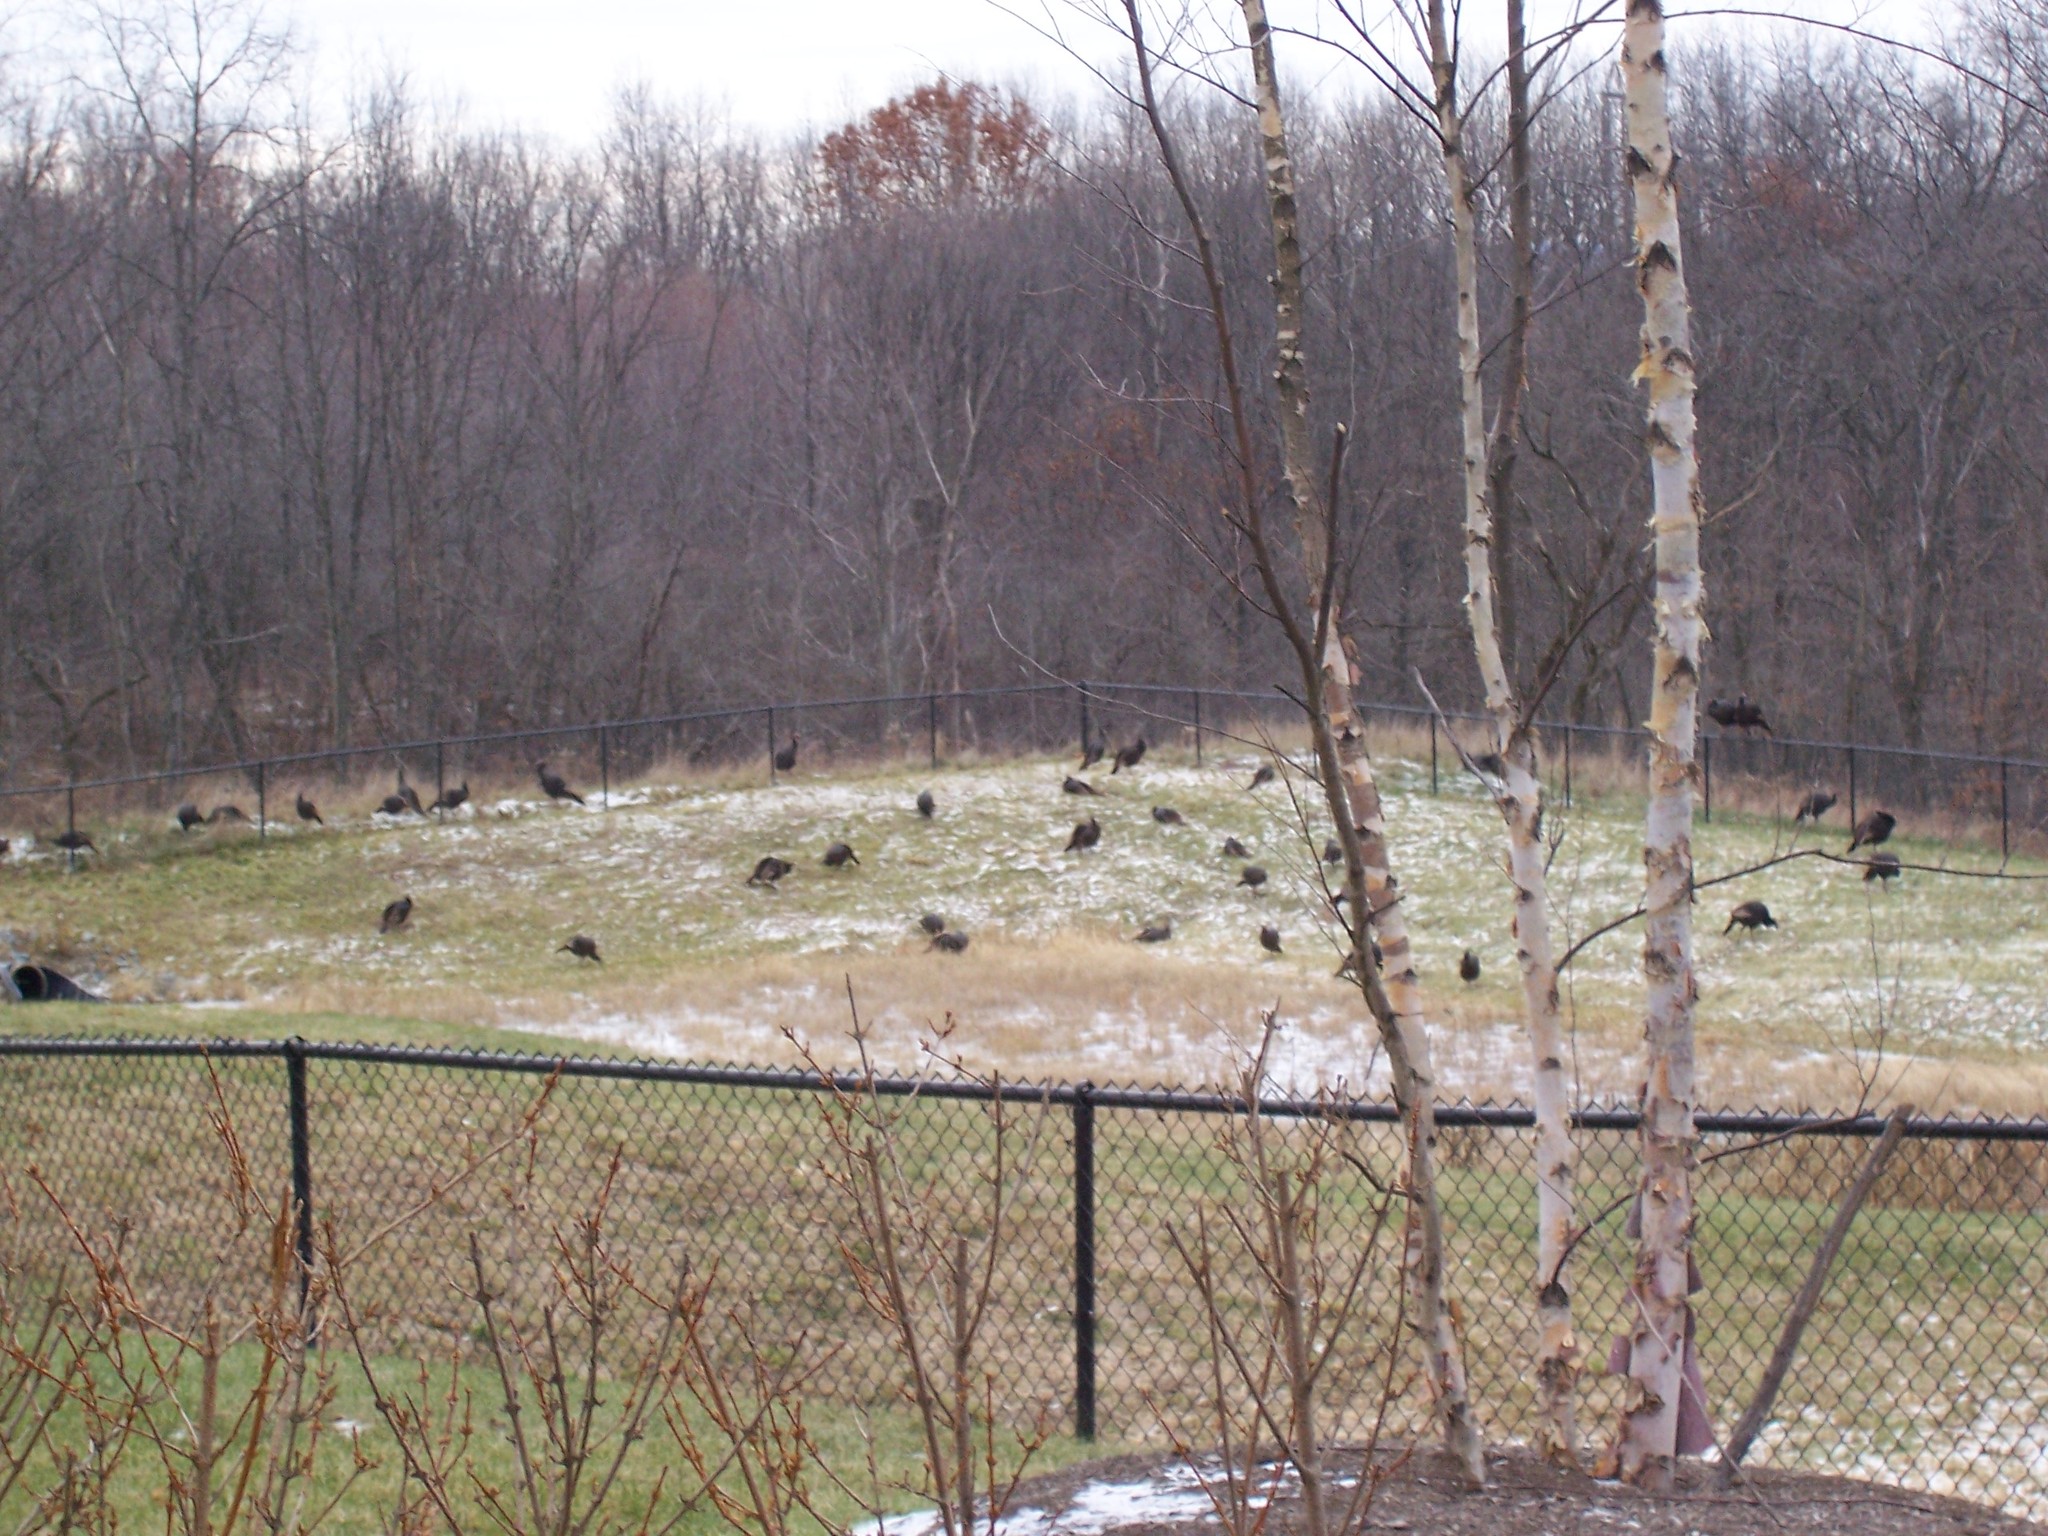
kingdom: Animalia
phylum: Chordata
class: Aves
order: Galliformes
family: Phasianidae
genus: Meleagris
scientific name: Meleagris gallopavo
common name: Wild turkey
